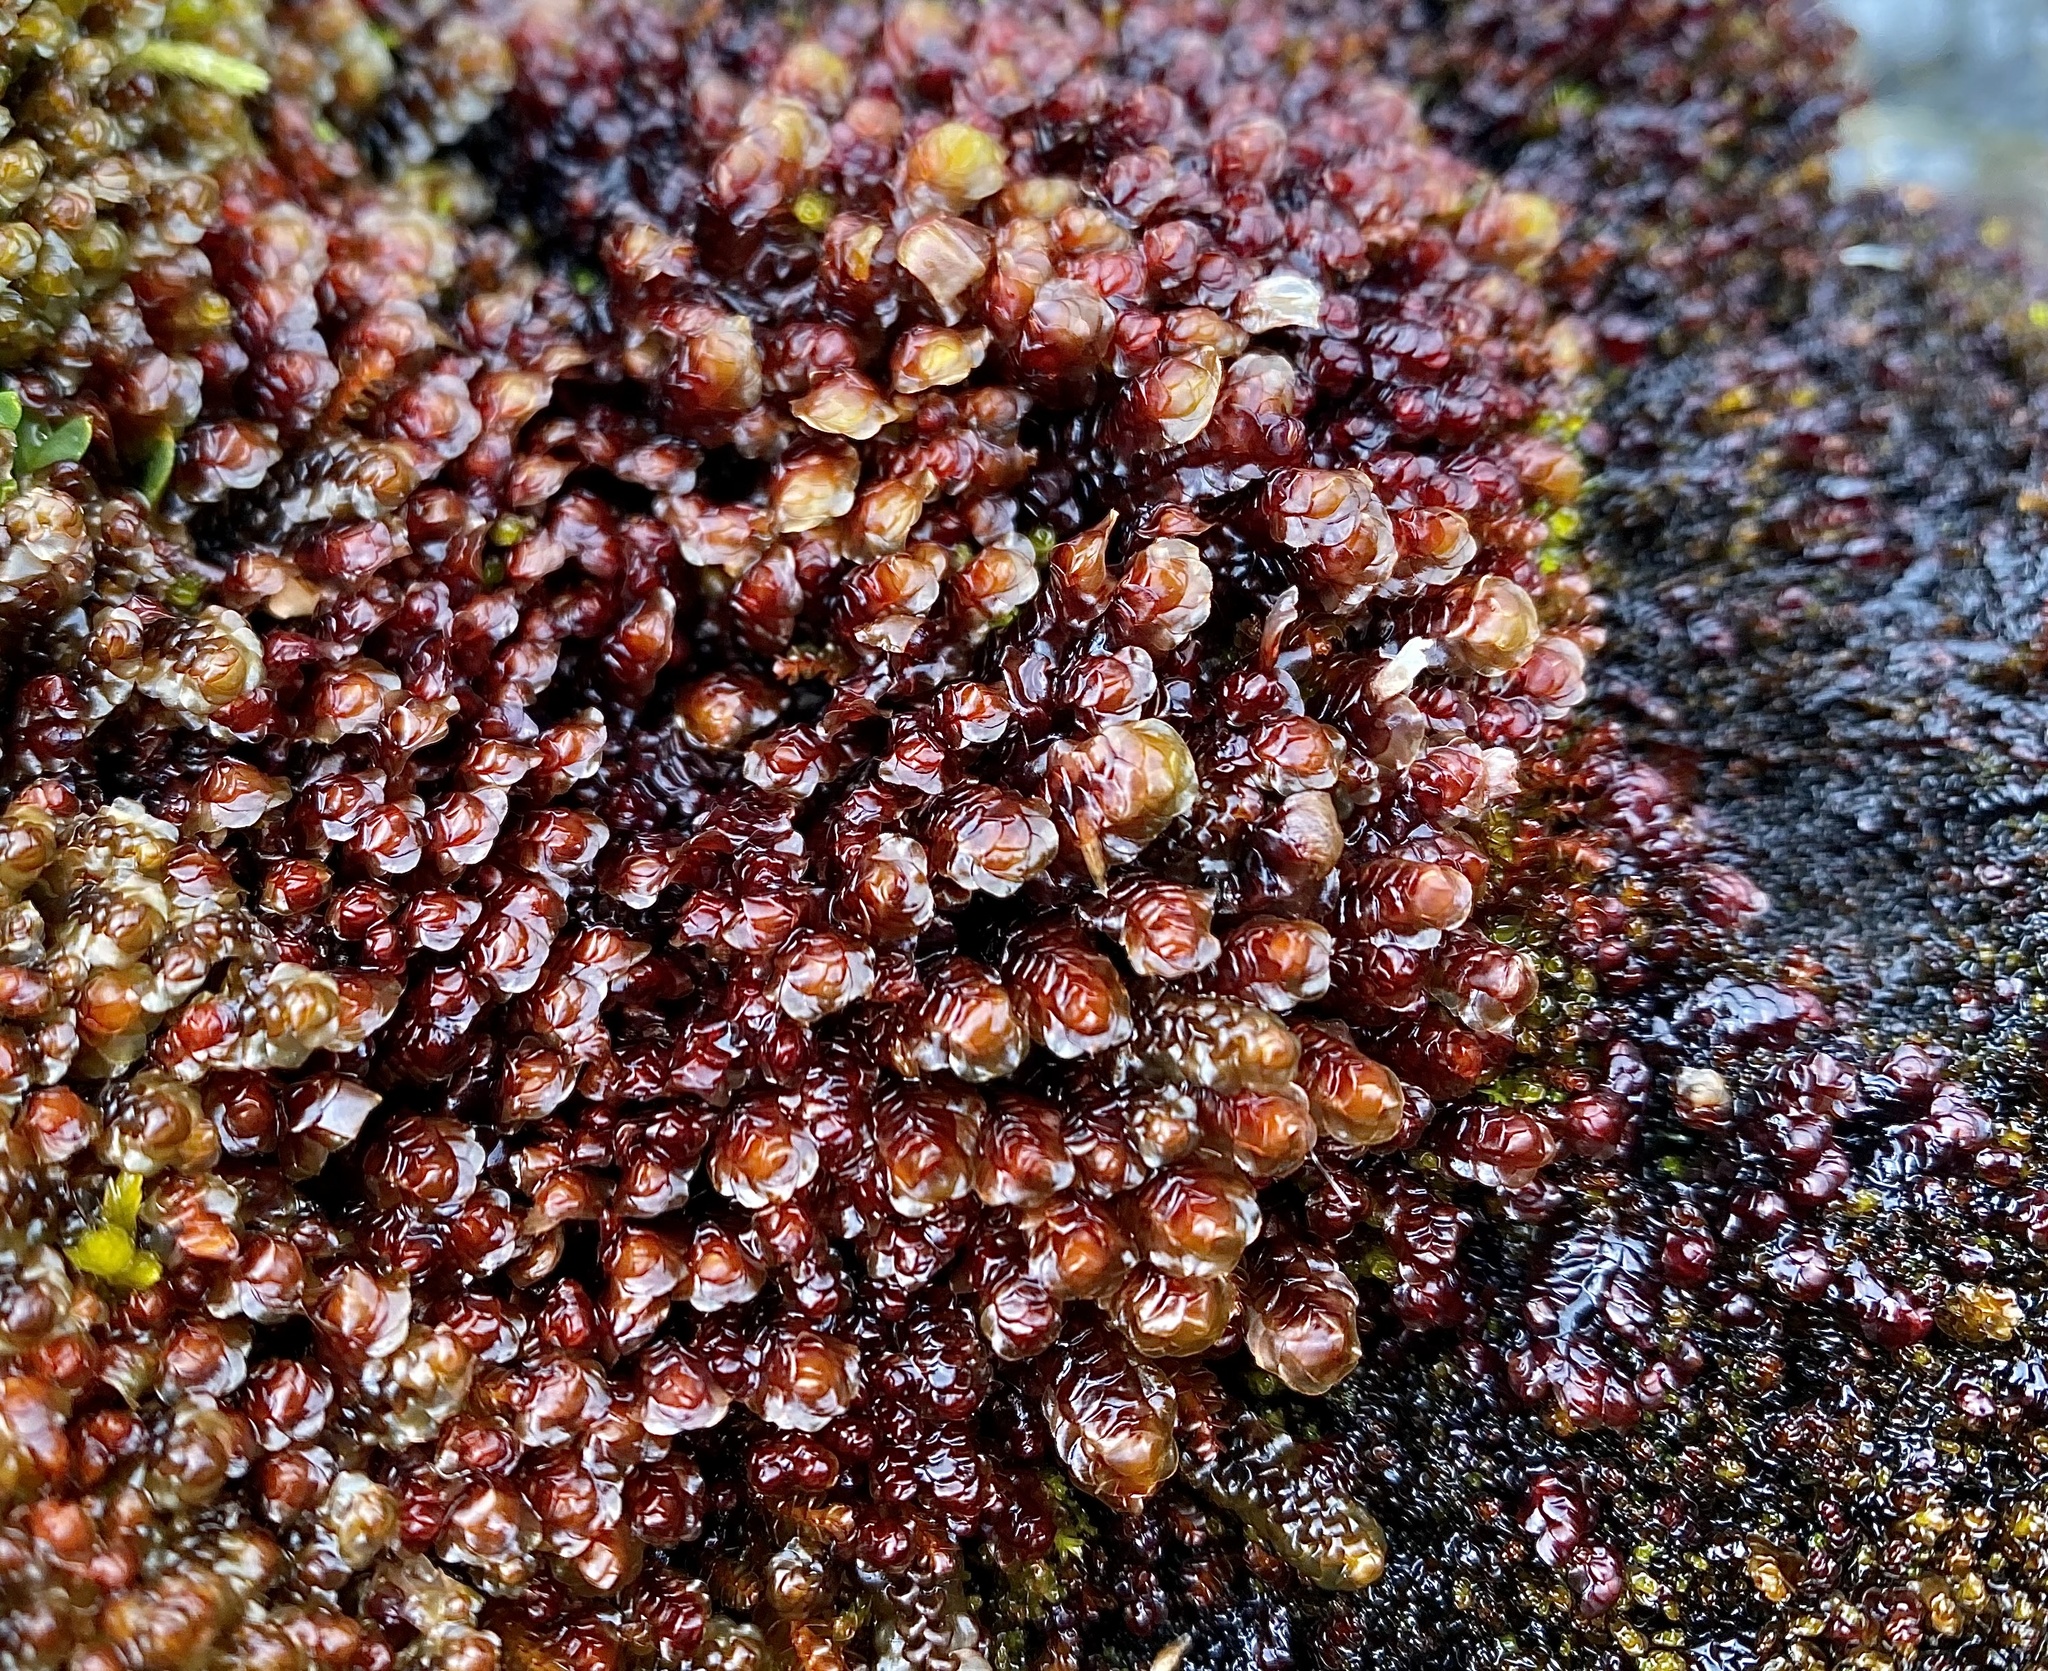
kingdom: Plantae
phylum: Marchantiophyta
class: Jungermanniopsida
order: Jungermanniales
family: Scapaniaceae
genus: Scapania
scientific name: Scapania undulata
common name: Water earwort
